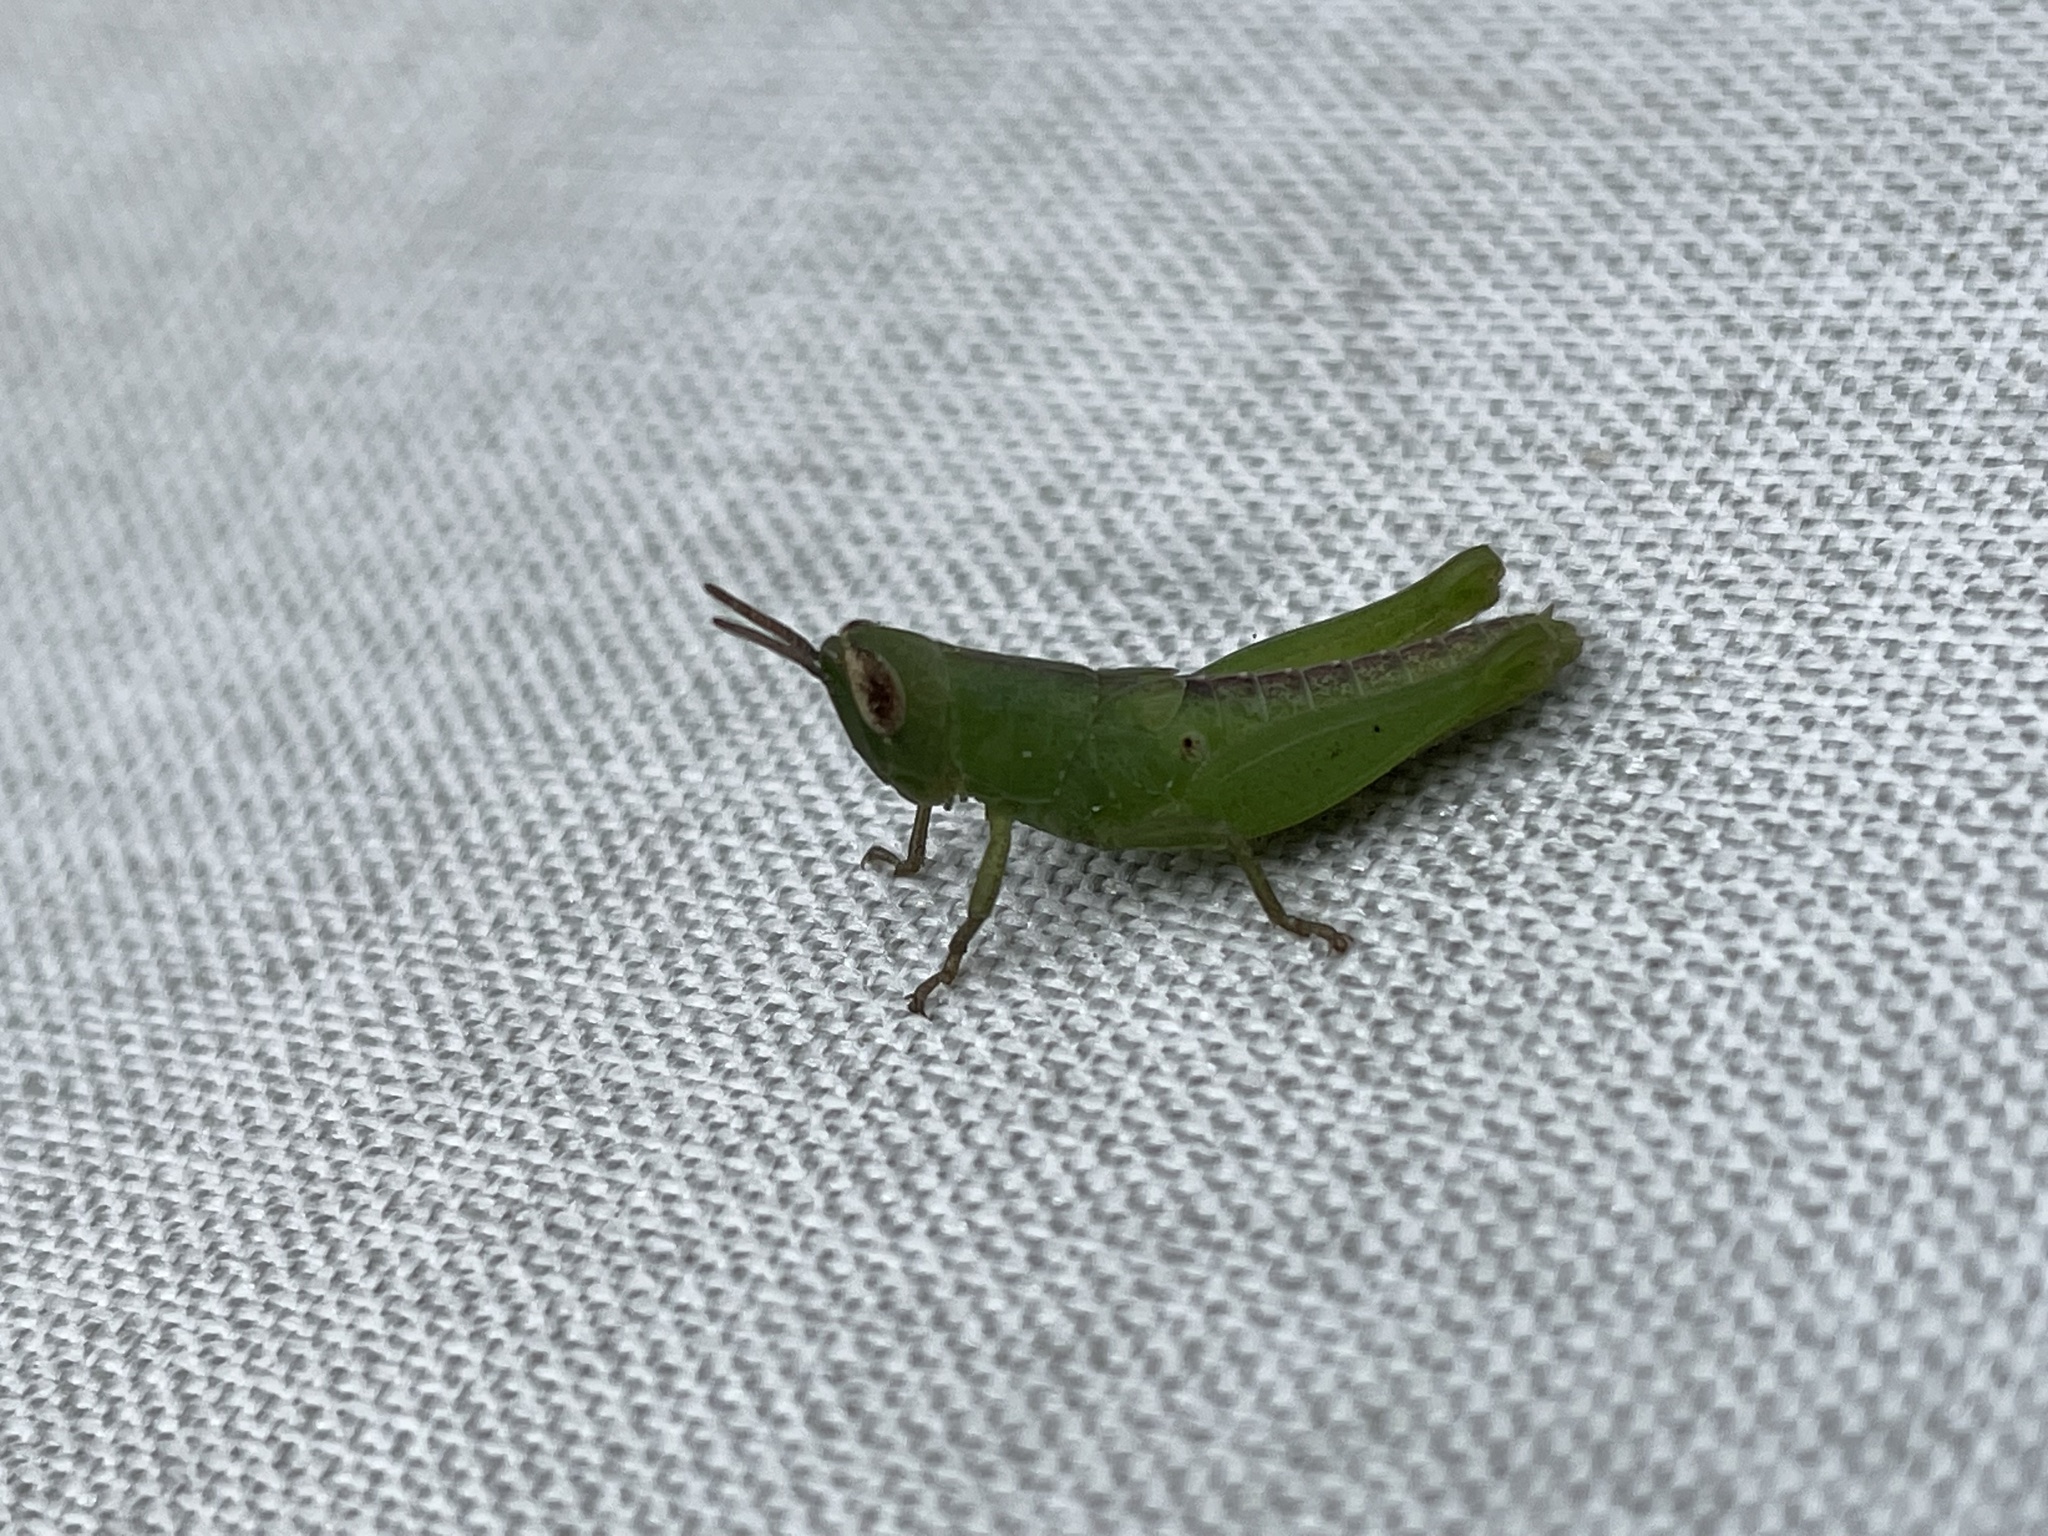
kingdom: Animalia
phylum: Arthropoda
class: Insecta
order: Orthoptera
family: Acrididae
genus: Pseudoxya
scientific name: Pseudoxya diminuta
